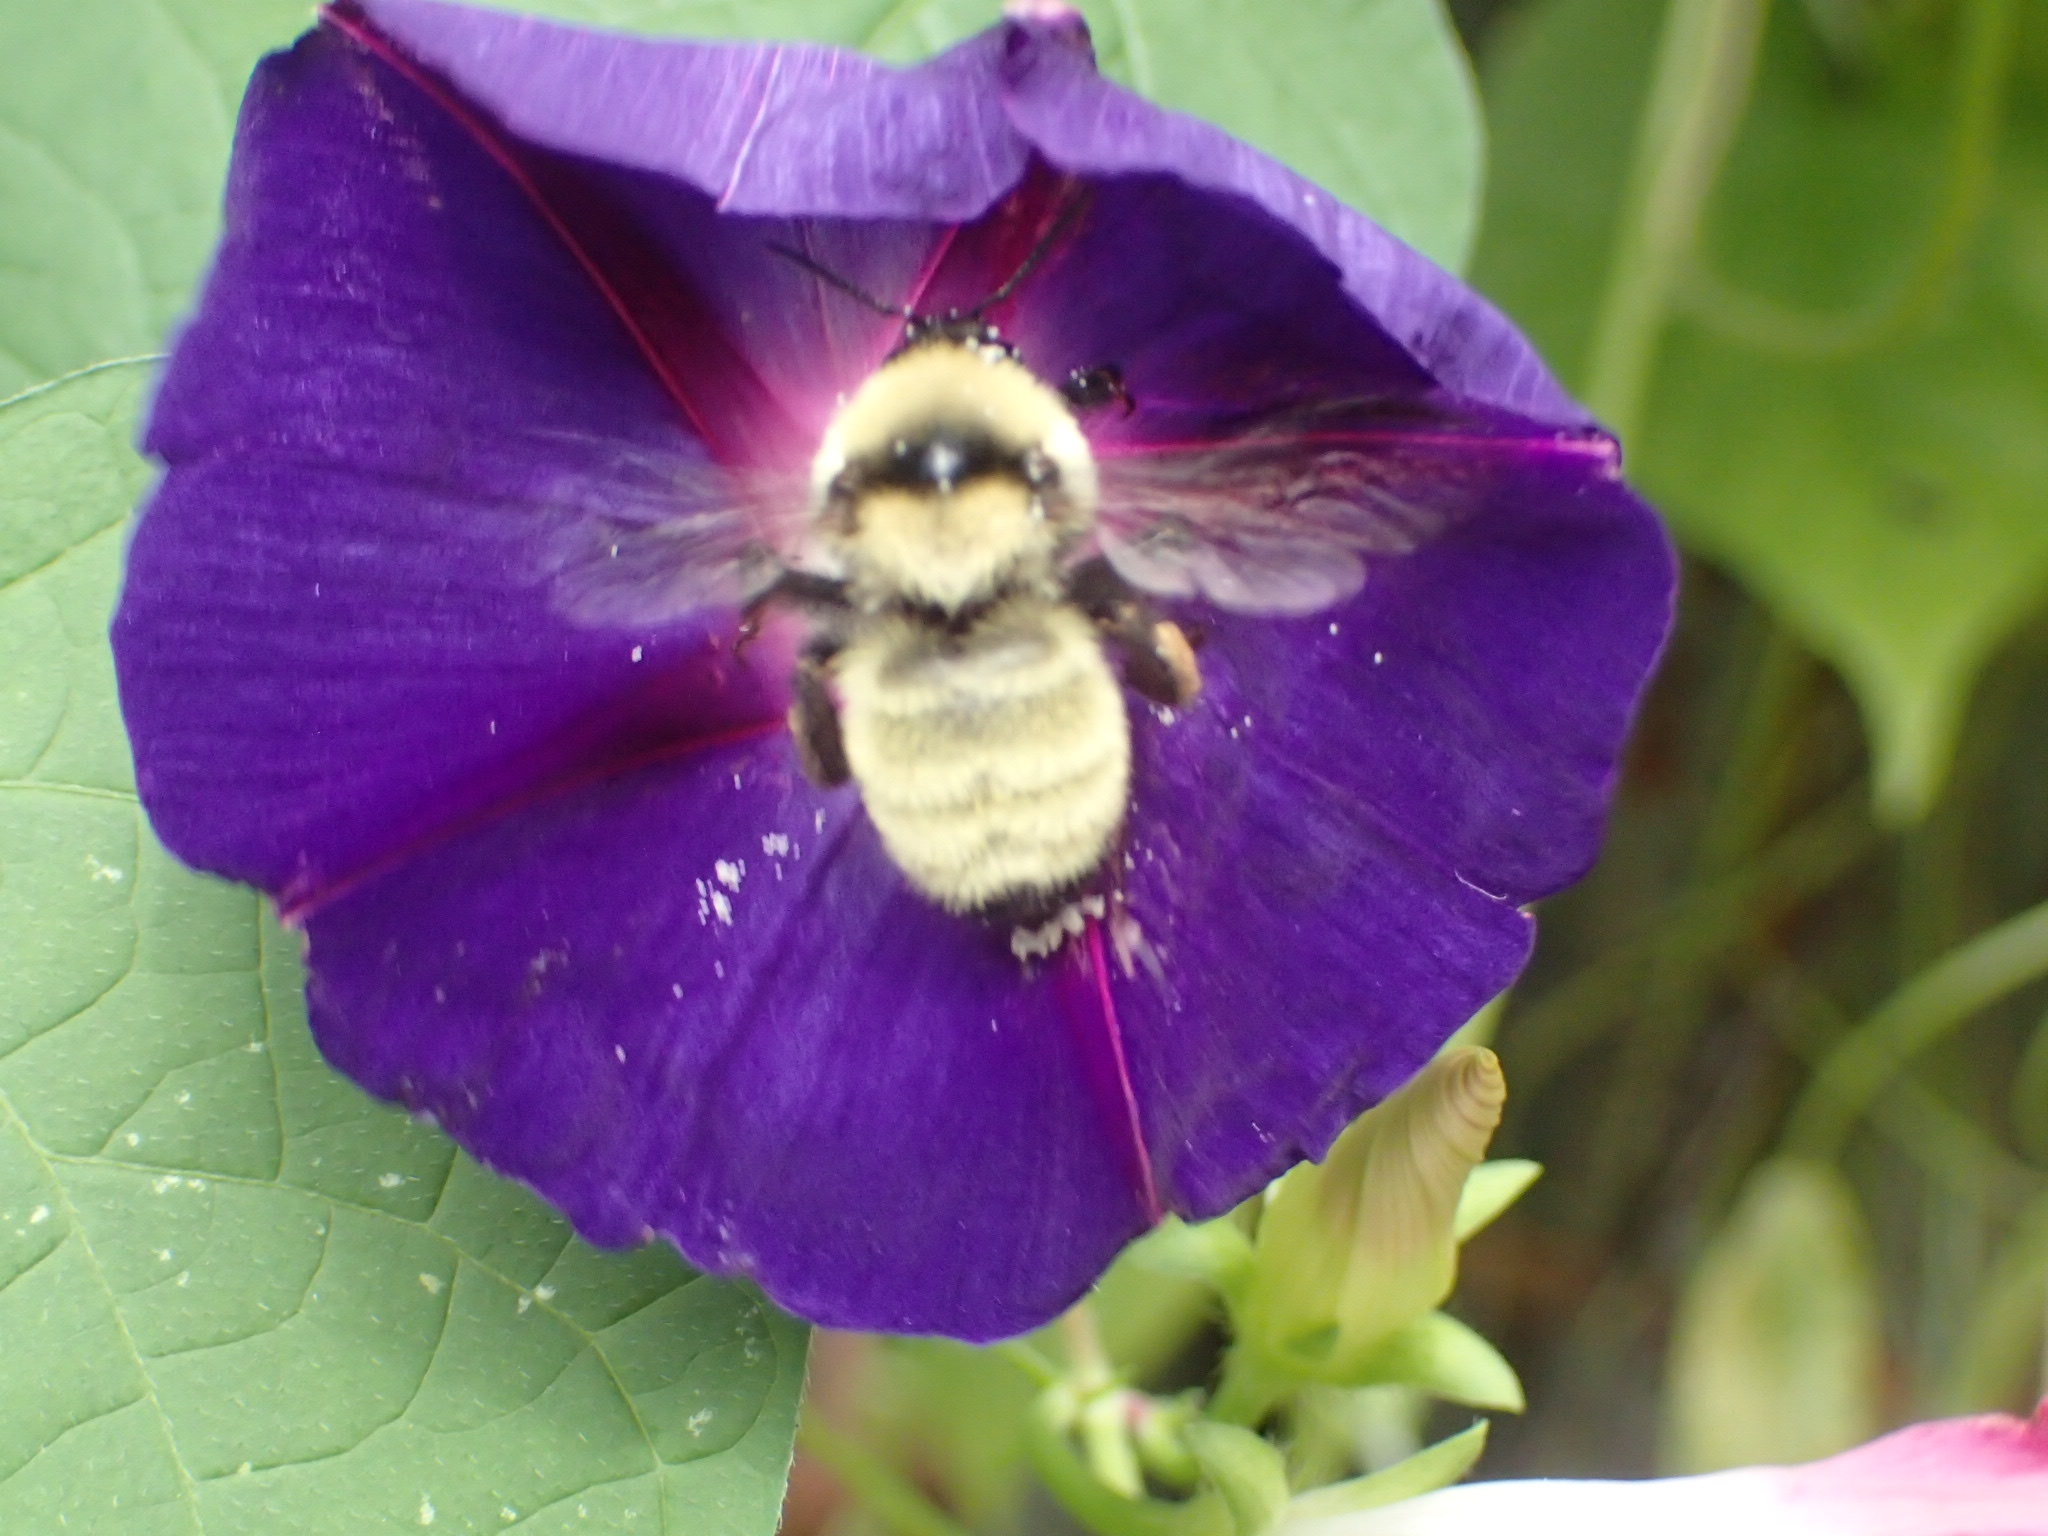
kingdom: Animalia
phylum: Arthropoda
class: Insecta
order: Hymenoptera
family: Apidae
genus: Bombus
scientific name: Bombus fervidus
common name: Yellow bumble bee
